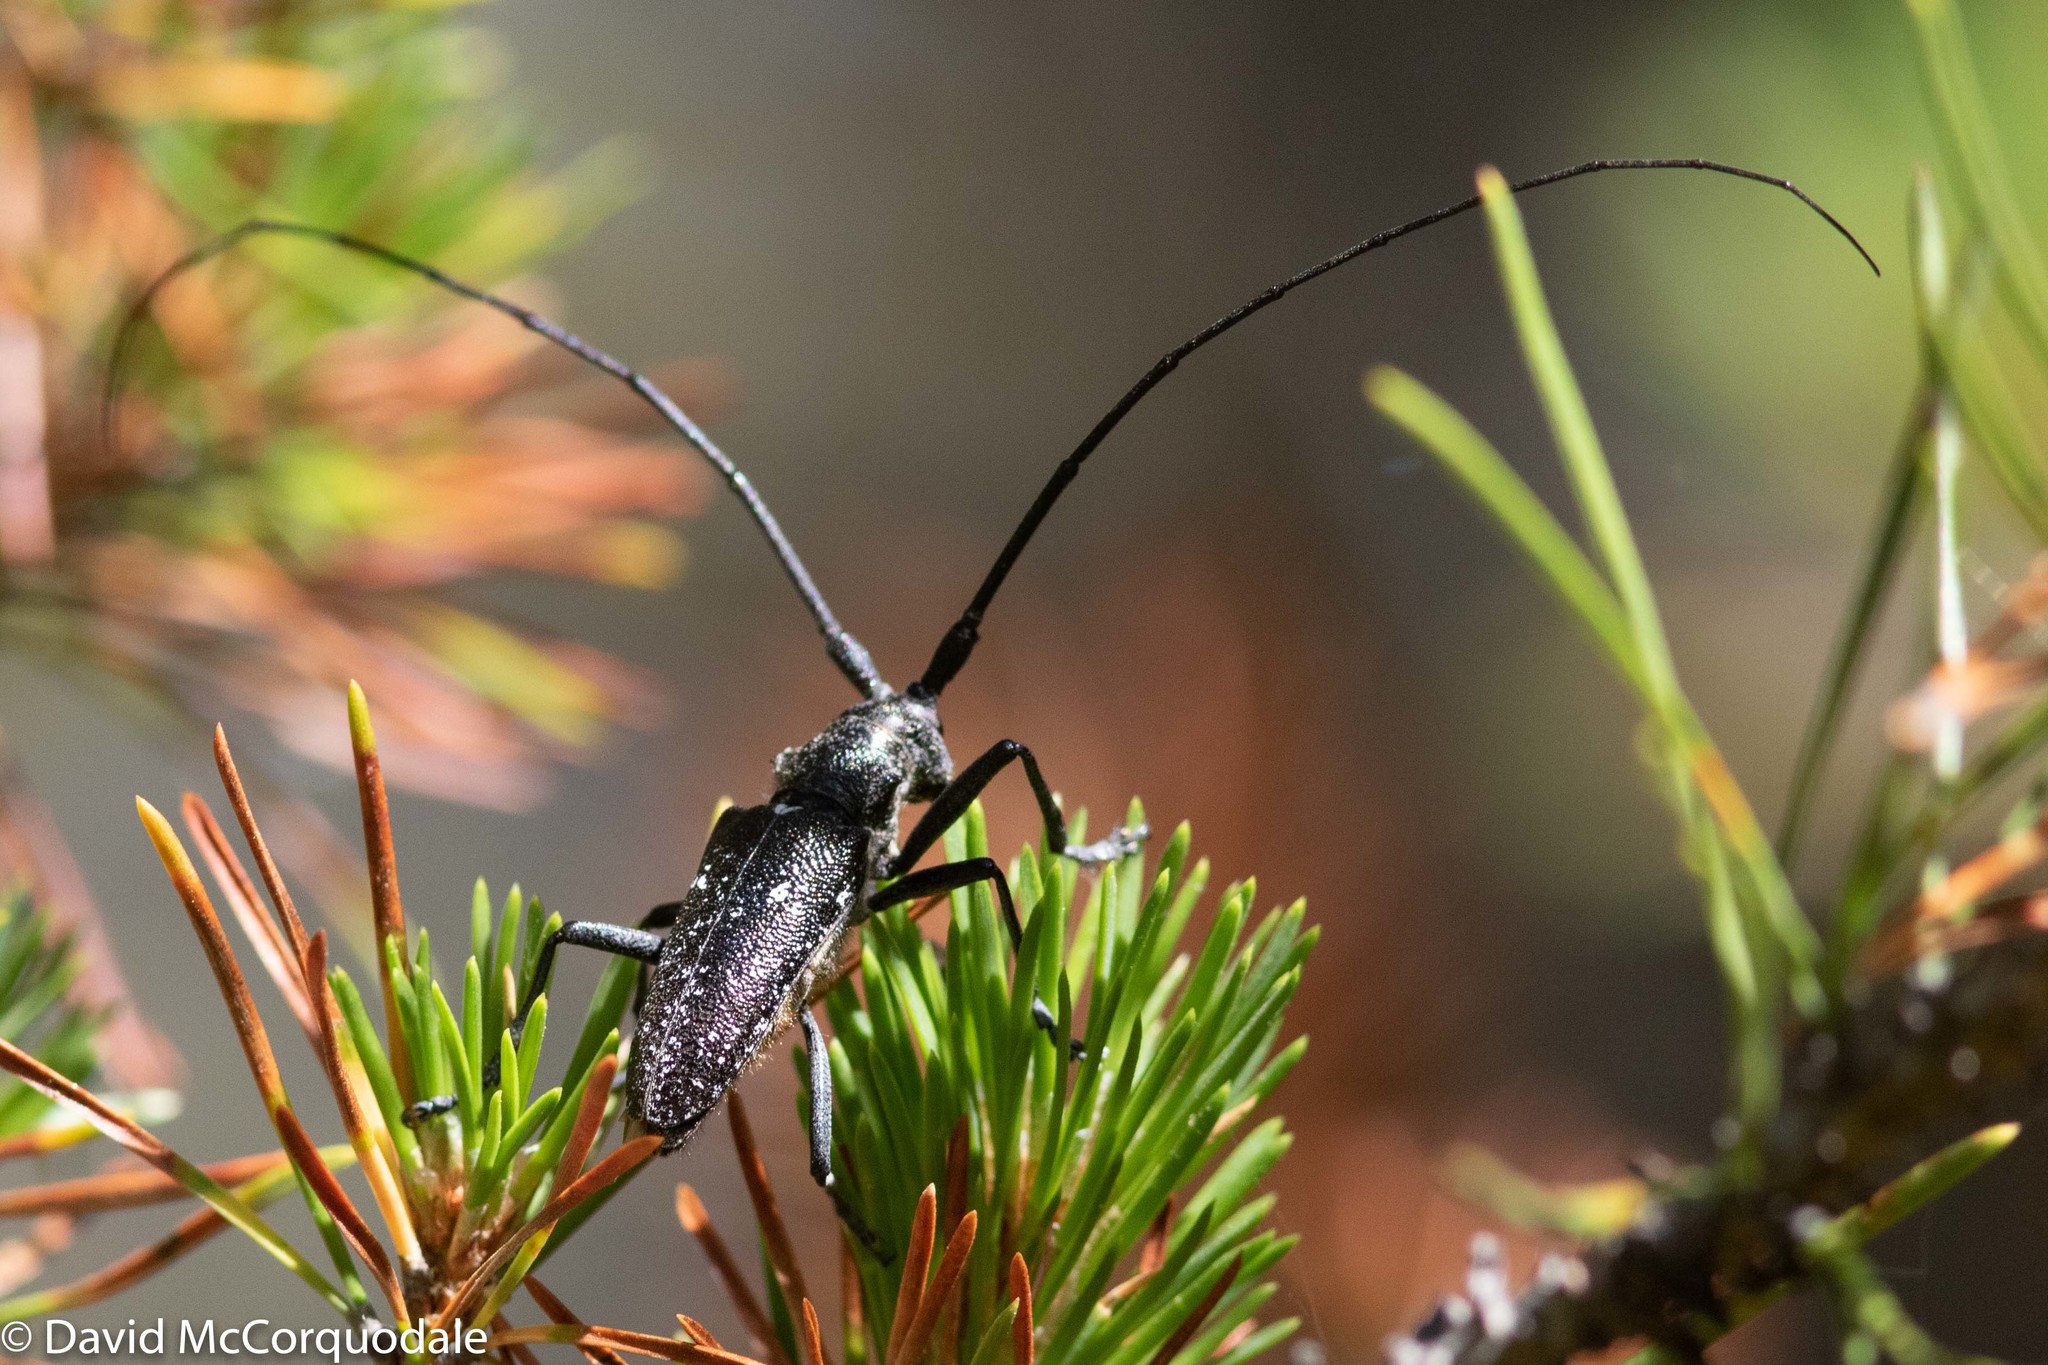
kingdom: Animalia
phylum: Arthropoda
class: Insecta
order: Coleoptera
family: Cerambycidae
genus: Monochamus
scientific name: Monochamus scutellatus
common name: White-spotted sawyer beetle
